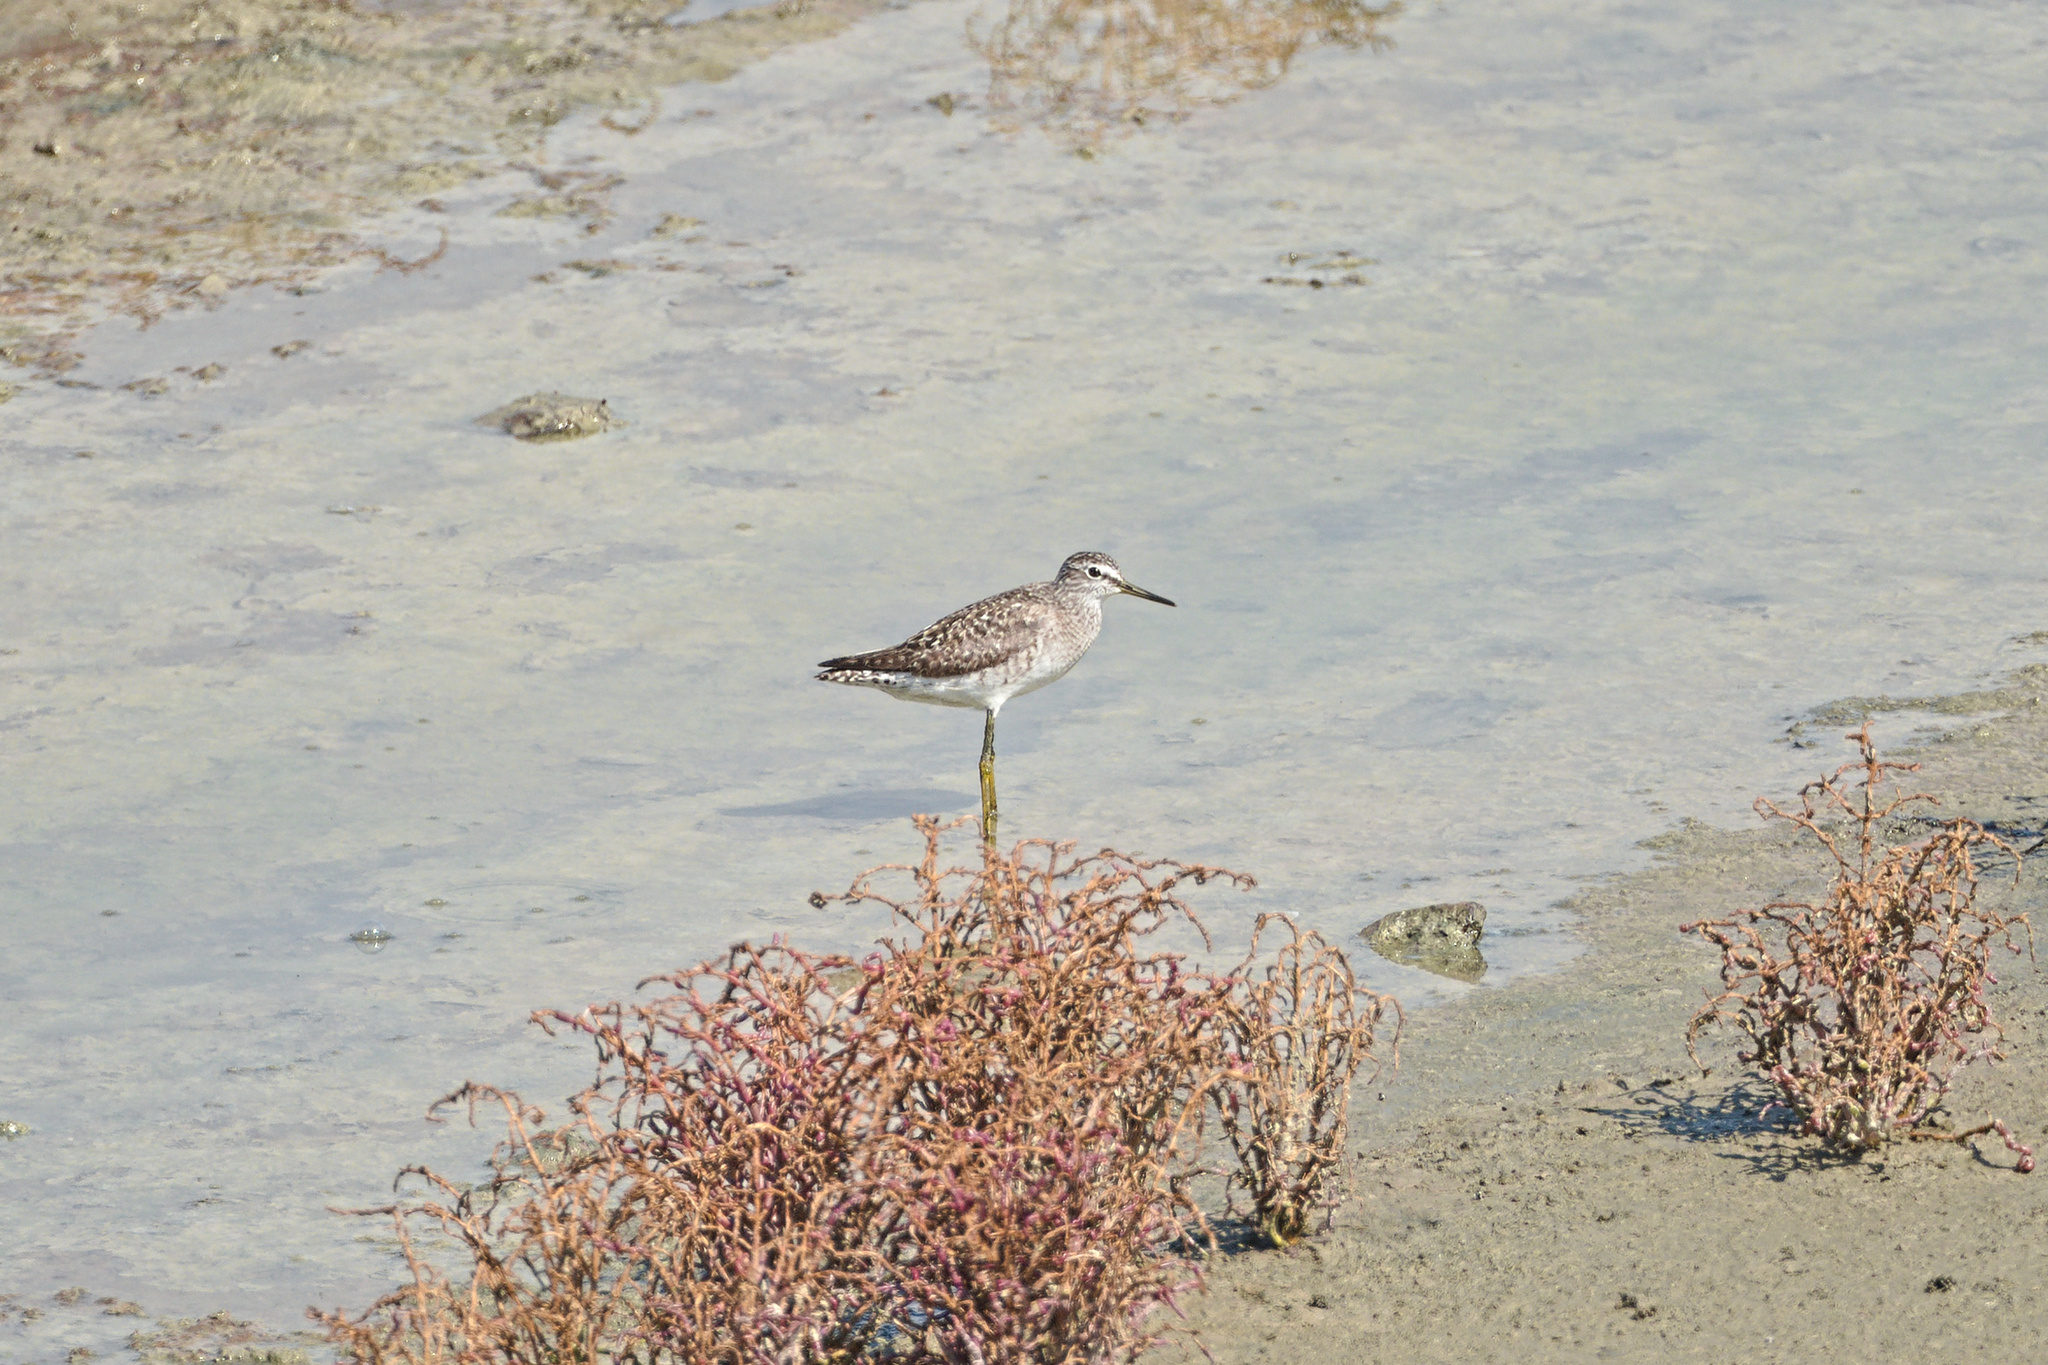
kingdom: Animalia
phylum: Chordata
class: Aves
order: Charadriiformes
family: Scolopacidae
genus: Tringa
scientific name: Tringa glareola
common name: Wood sandpiper
